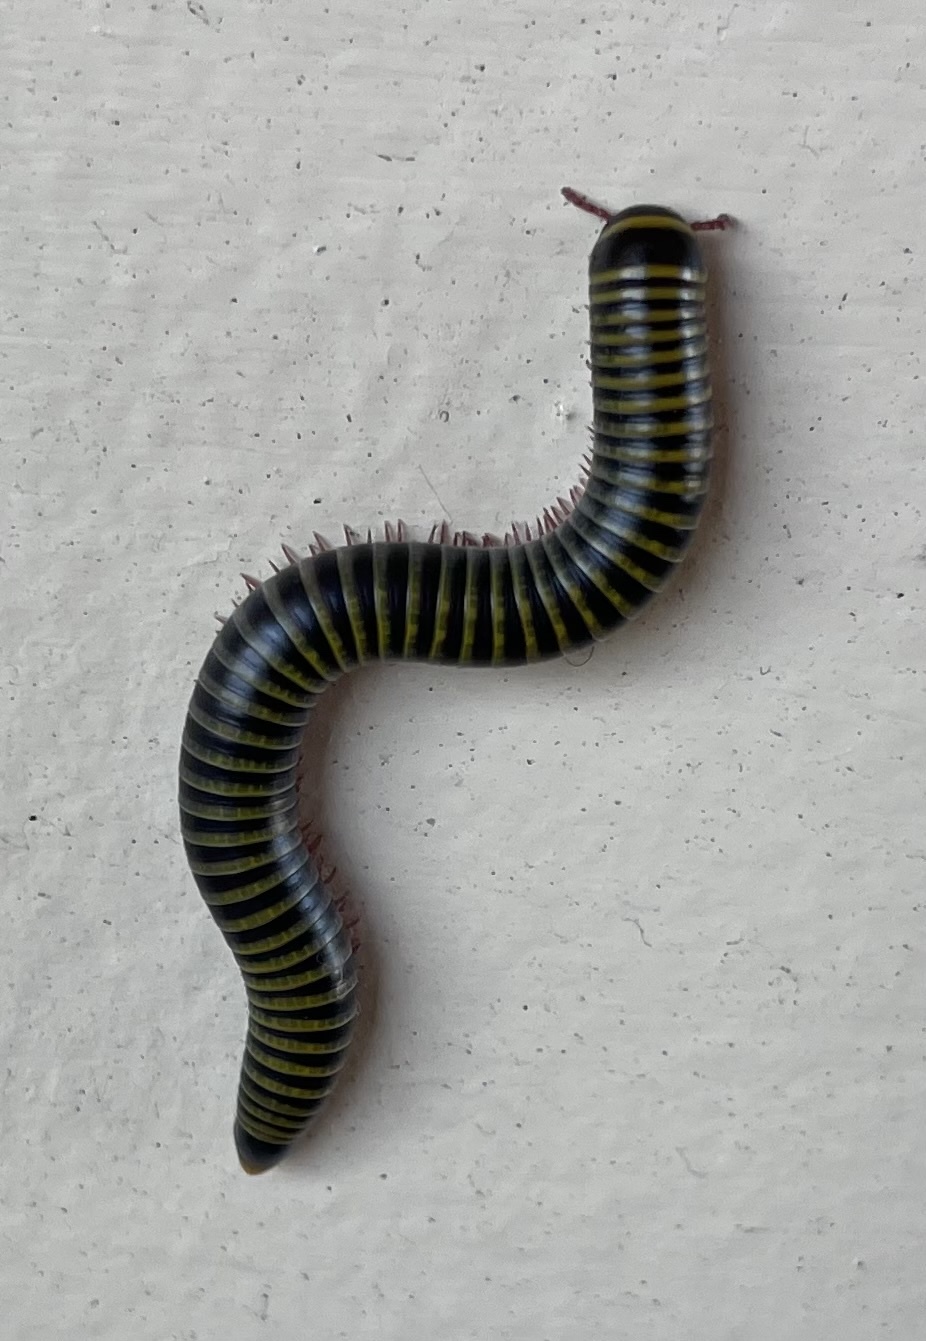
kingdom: Animalia
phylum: Arthropoda
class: Diplopoda
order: Spirobolida
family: Rhinocricidae
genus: Anadenobolus
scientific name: Anadenobolus monilicornis
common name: Caribbean millipede
